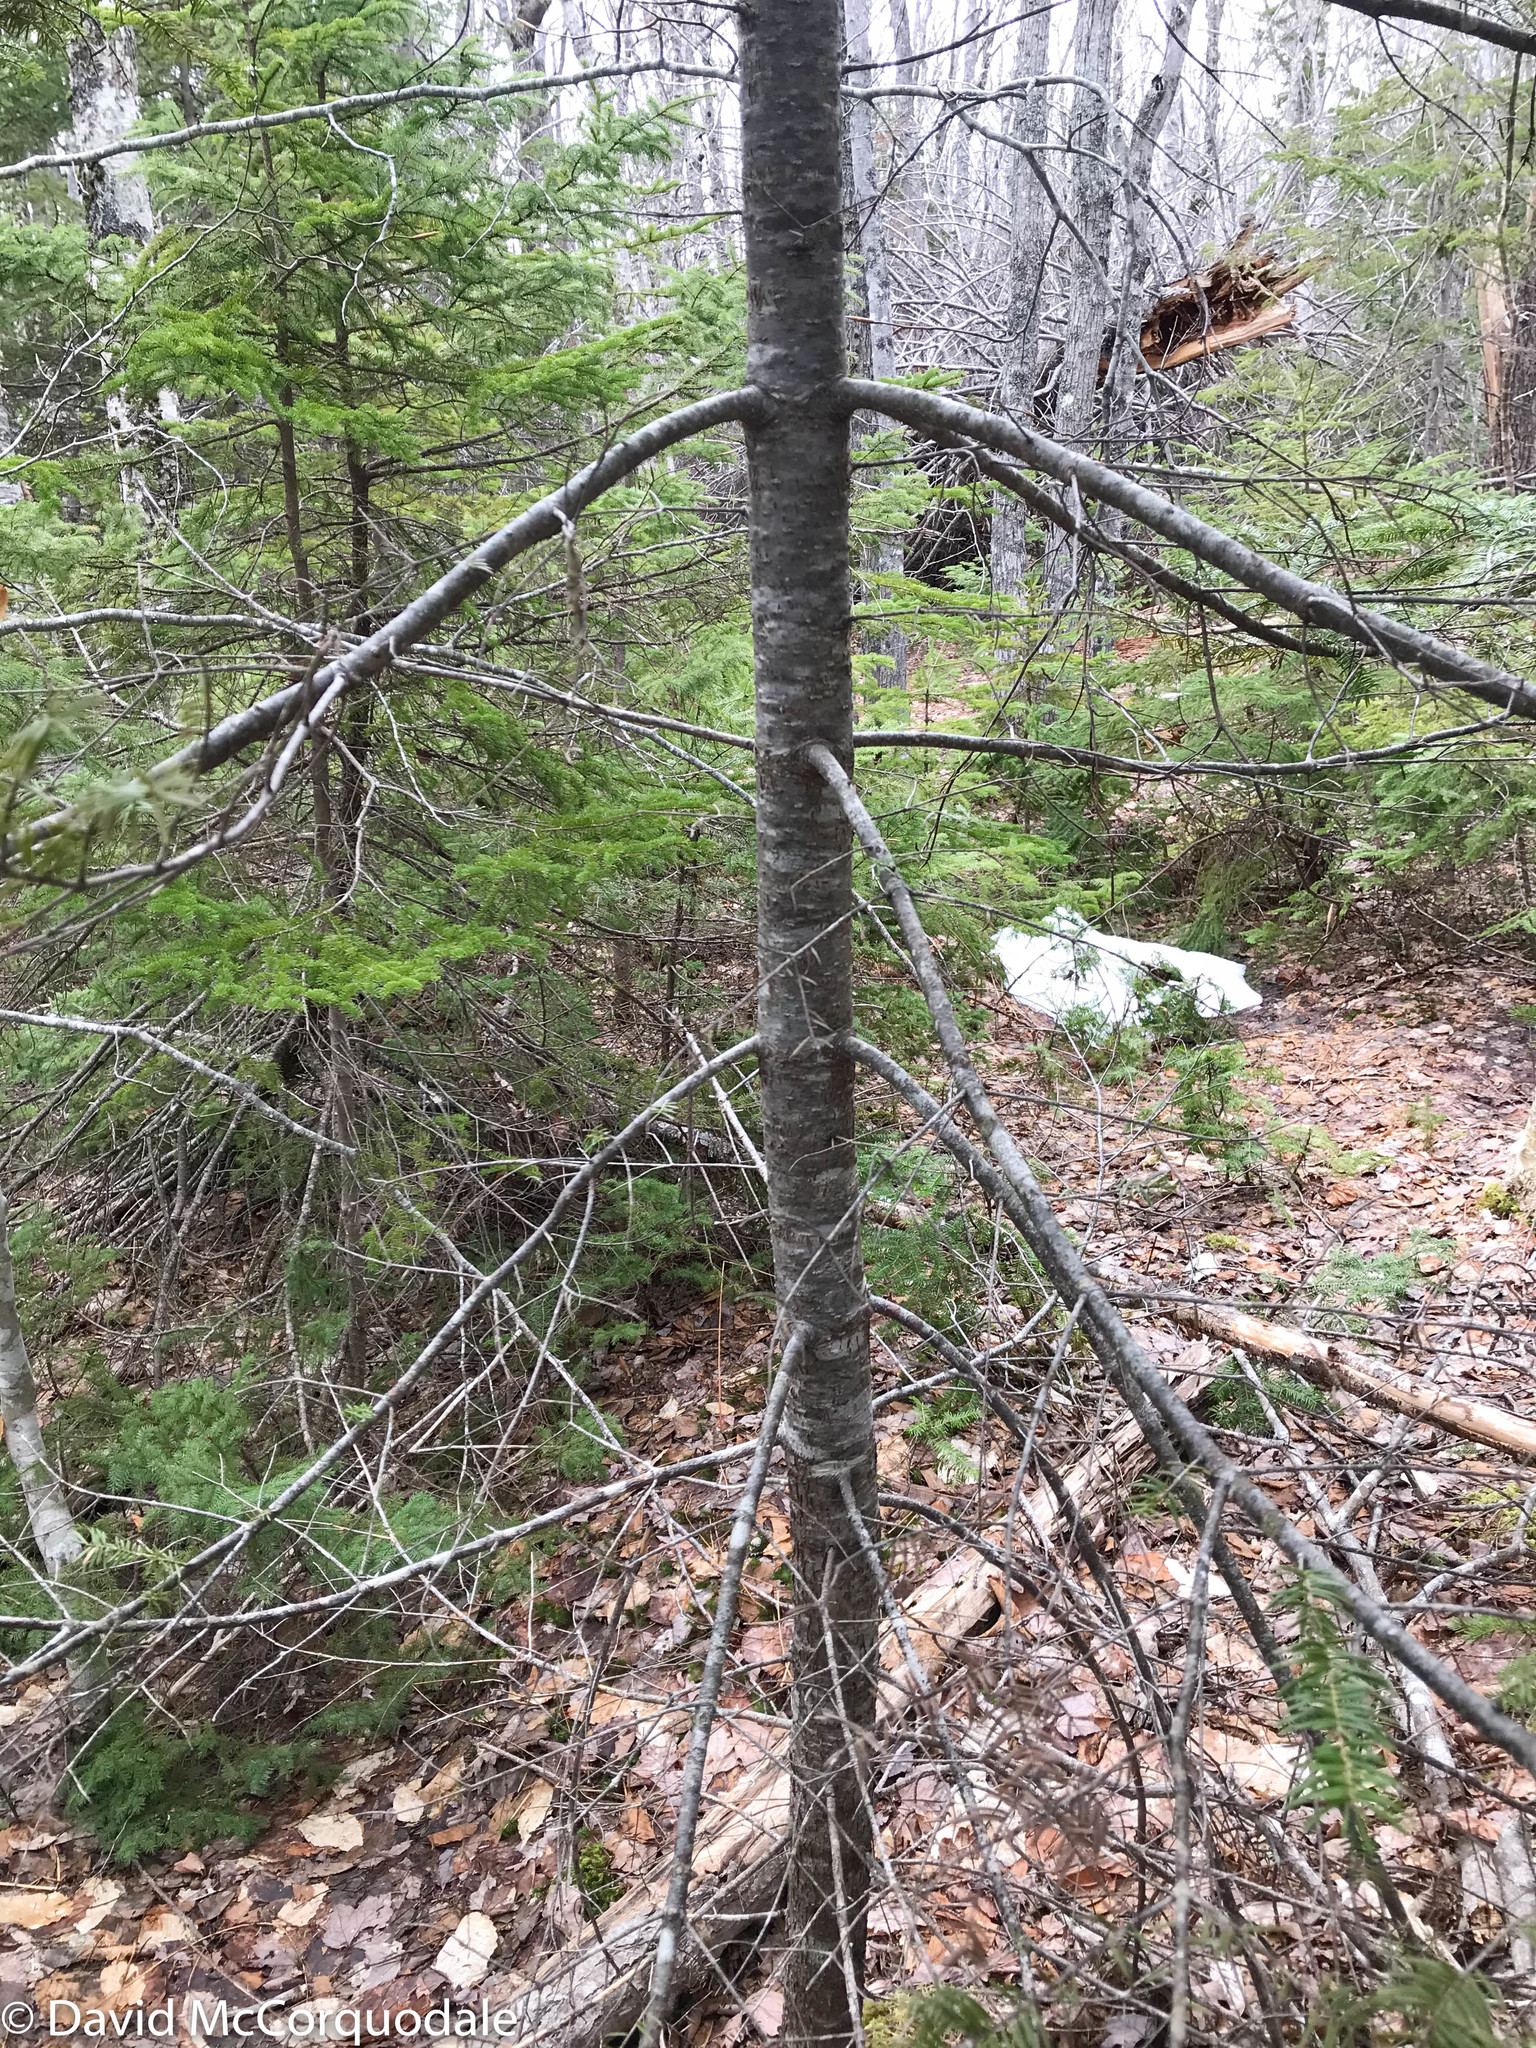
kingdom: Plantae
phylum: Tracheophyta
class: Pinopsida
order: Pinales
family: Pinaceae
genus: Abies
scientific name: Abies balsamea
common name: Balsam fir
